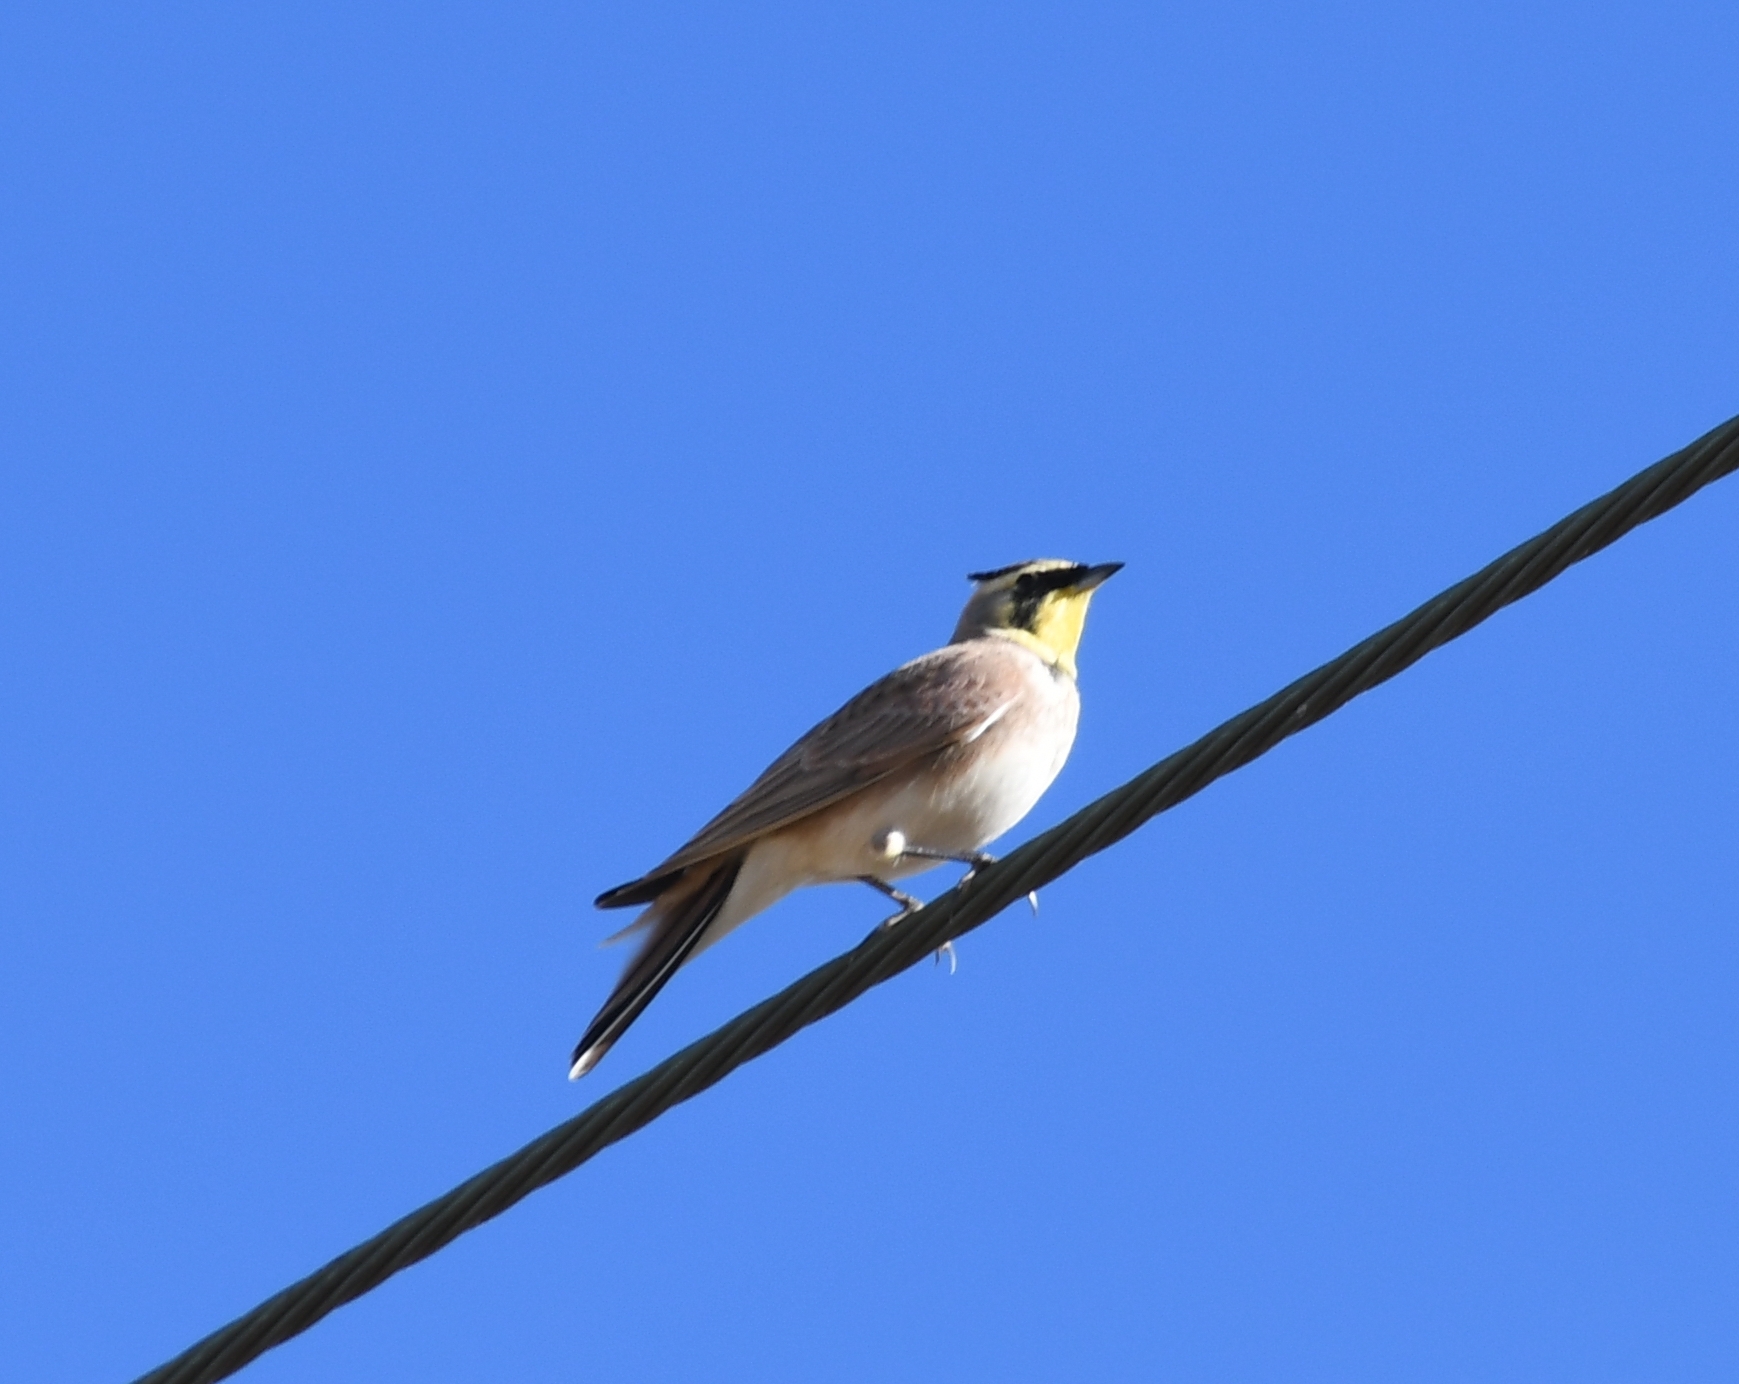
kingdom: Animalia
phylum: Chordata
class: Aves
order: Passeriformes
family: Alaudidae
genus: Eremophila
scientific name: Eremophila alpestris
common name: Horned lark
